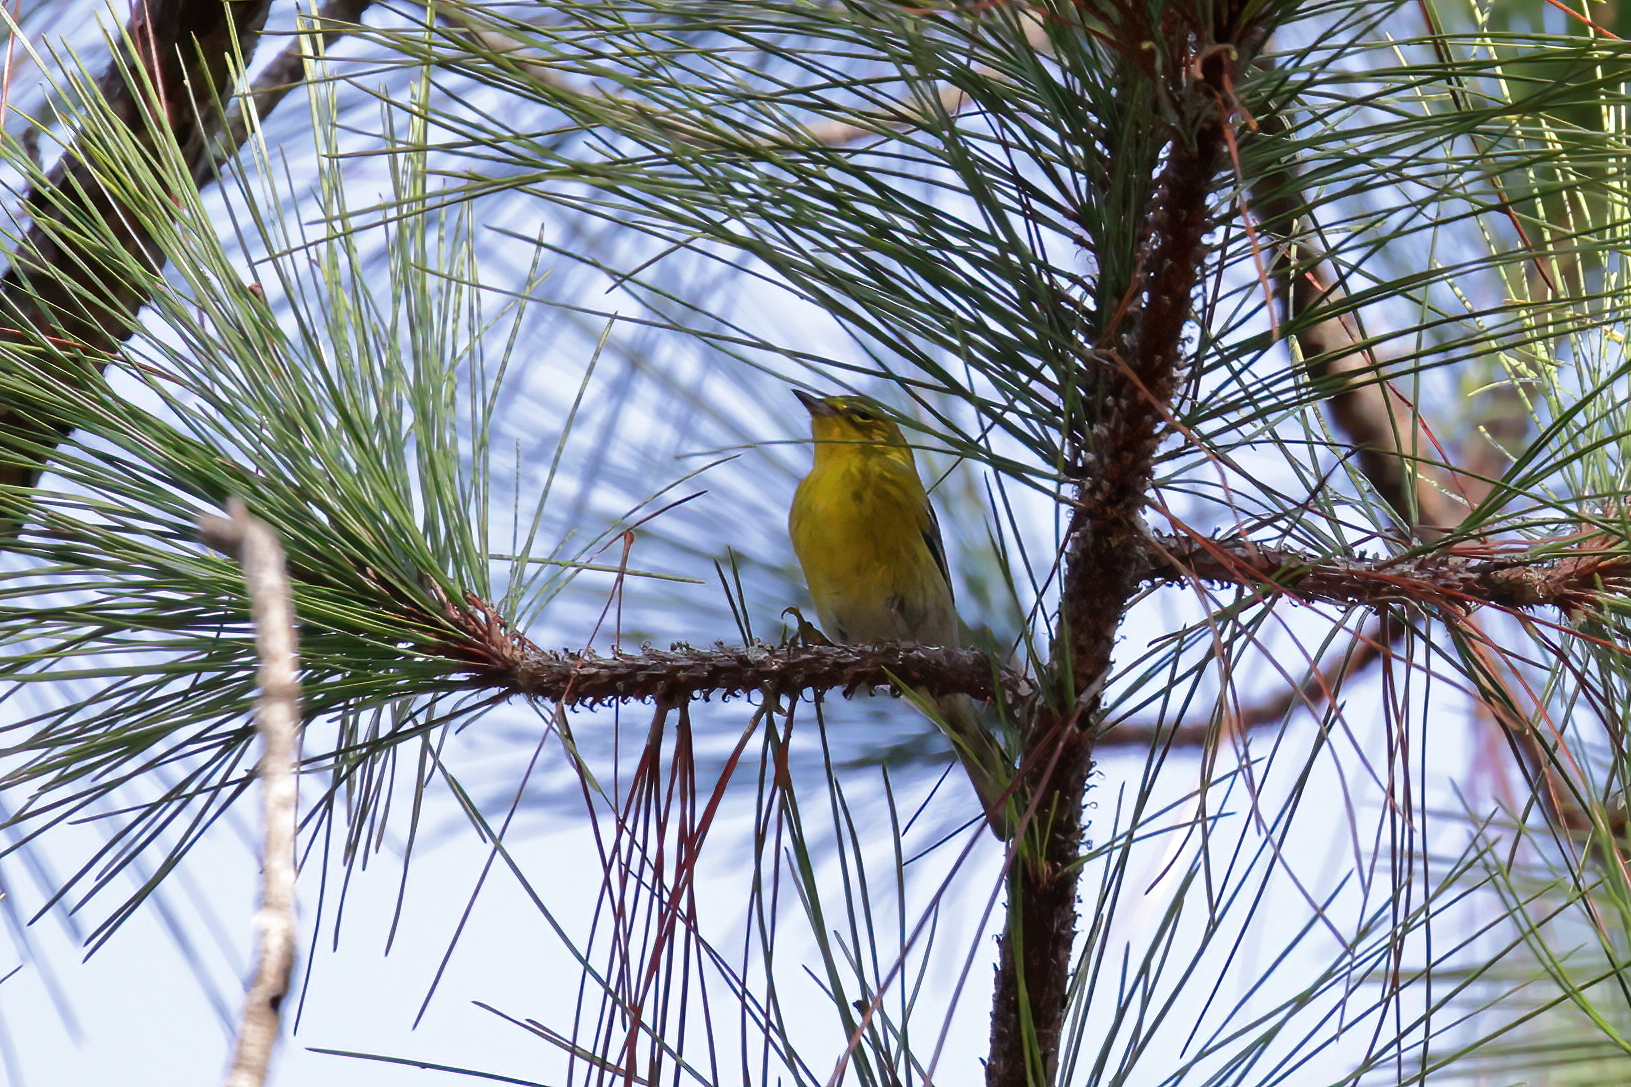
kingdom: Animalia
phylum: Chordata
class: Aves
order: Passeriformes
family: Parulidae
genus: Setophaga
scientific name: Setophaga pinus
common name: Pine warbler
